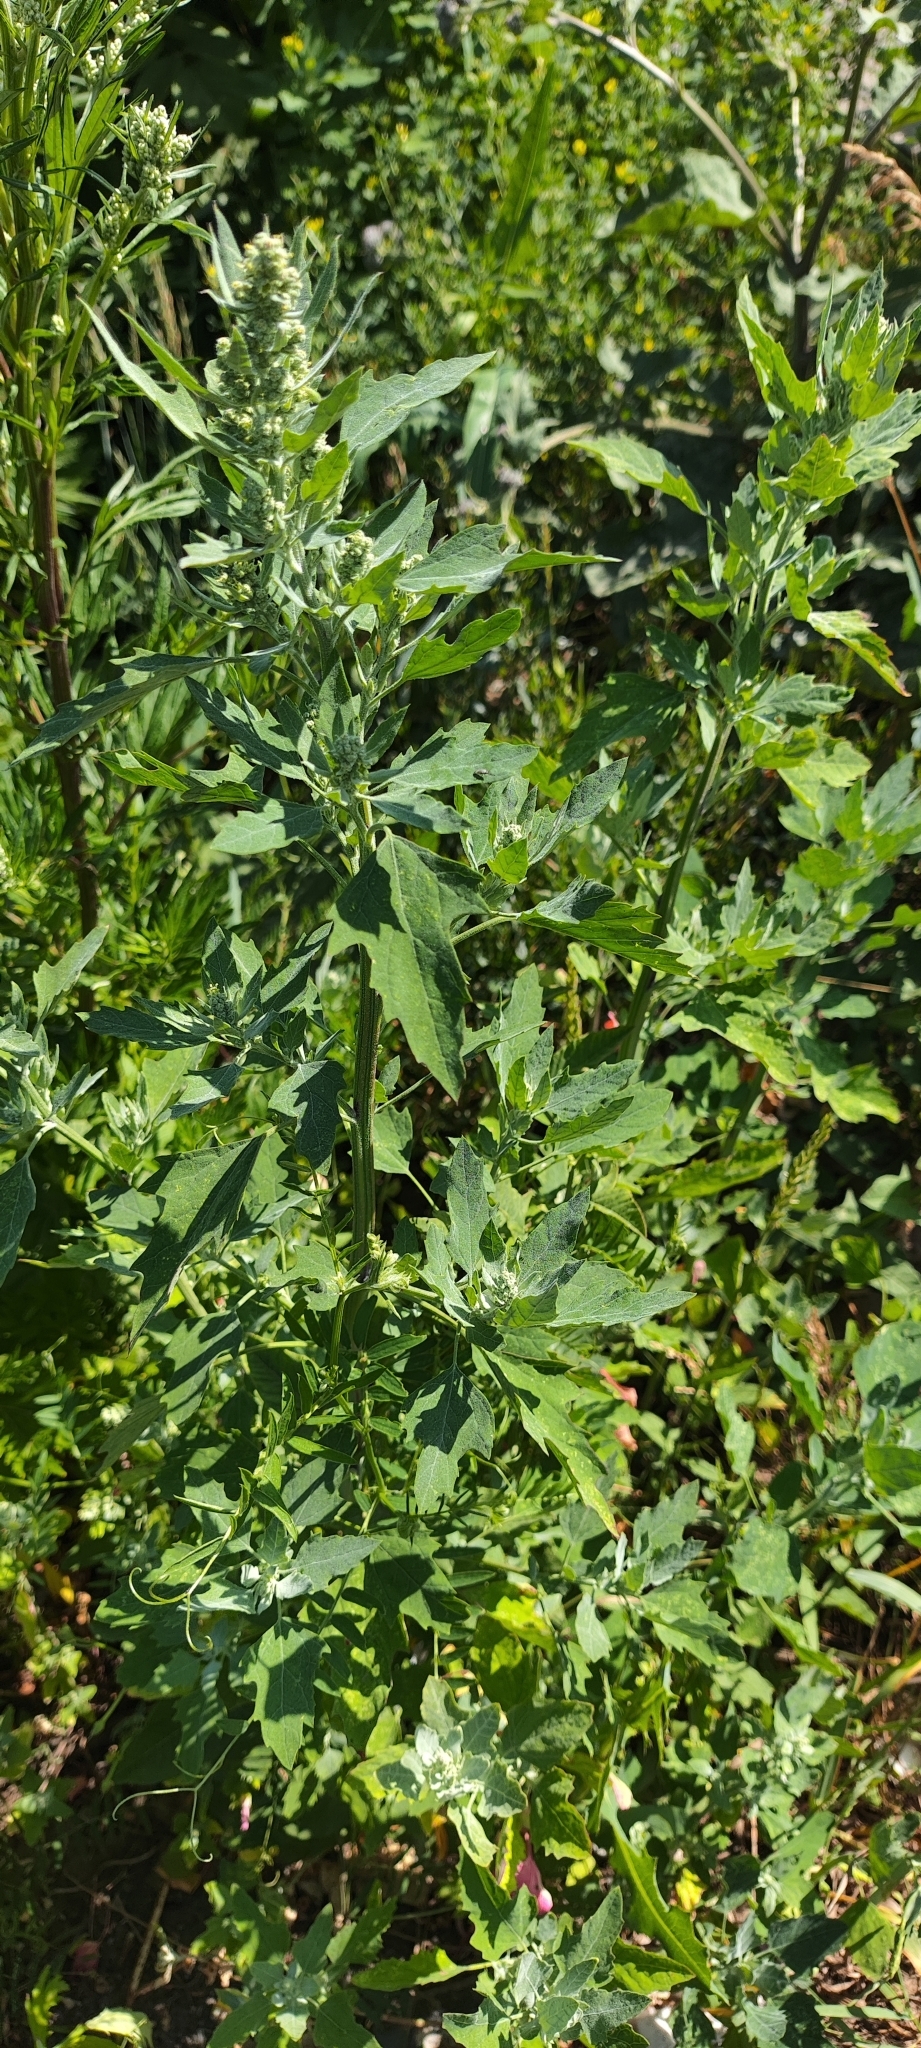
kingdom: Plantae
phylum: Tracheophyta
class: Magnoliopsida
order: Caryophyllales
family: Amaranthaceae
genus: Chenopodium
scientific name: Chenopodium album
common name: Fat-hen
